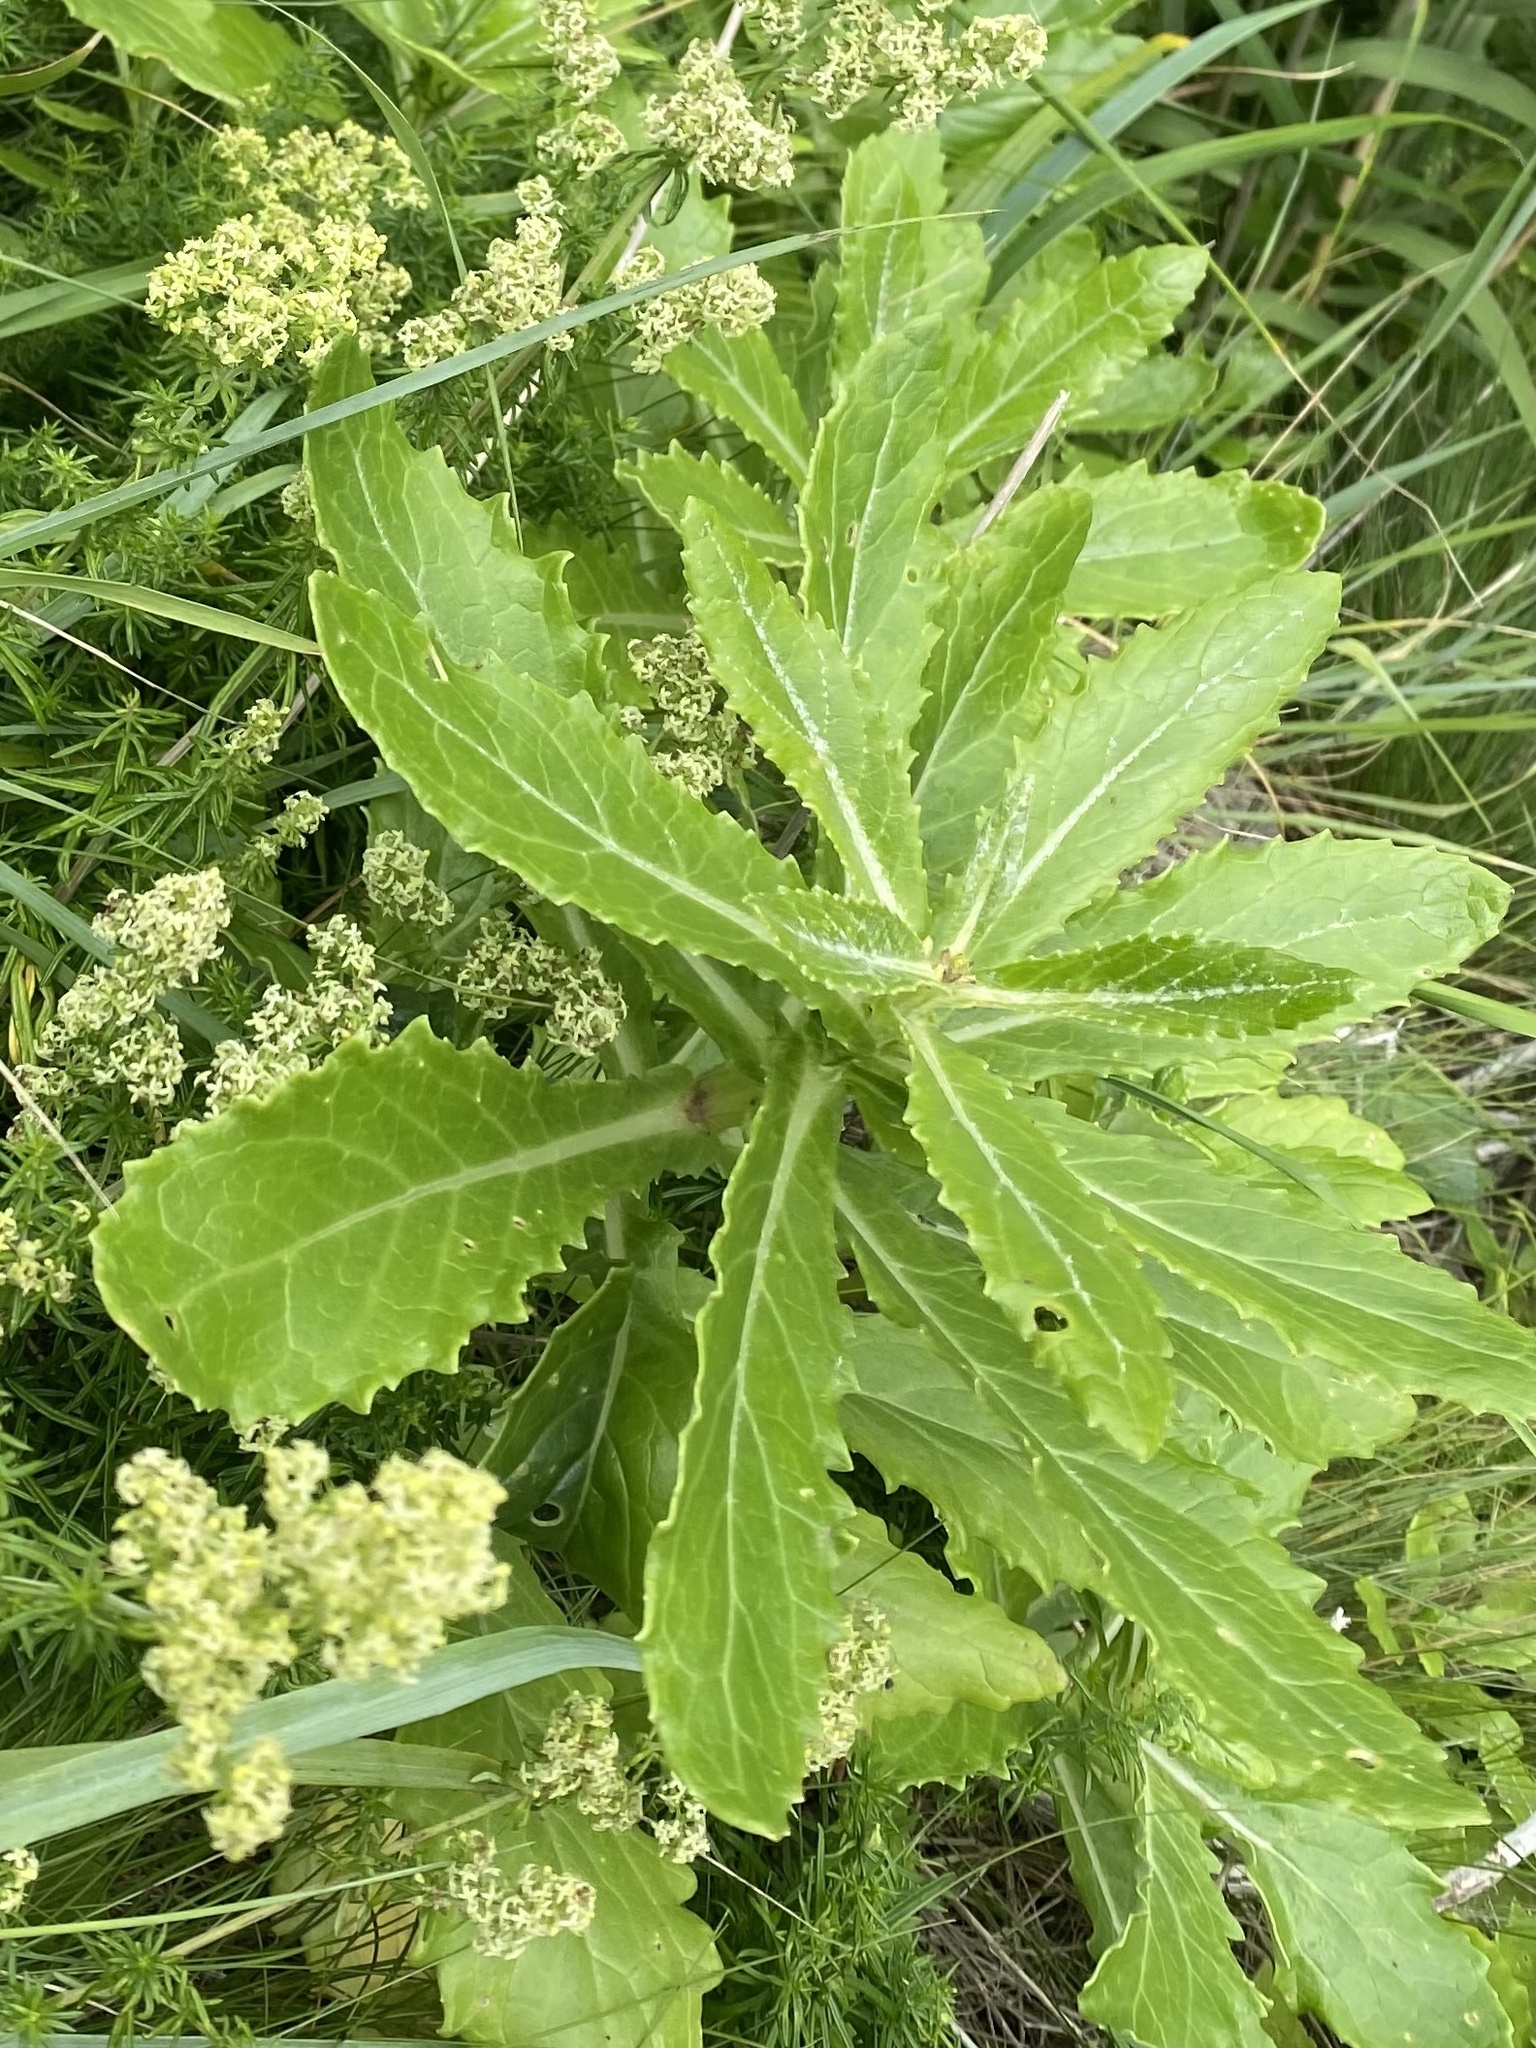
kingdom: Plantae
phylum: Tracheophyta
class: Magnoliopsida
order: Asterales
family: Asteraceae
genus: Jacobaea
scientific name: Jacobaea pseudoarnica
